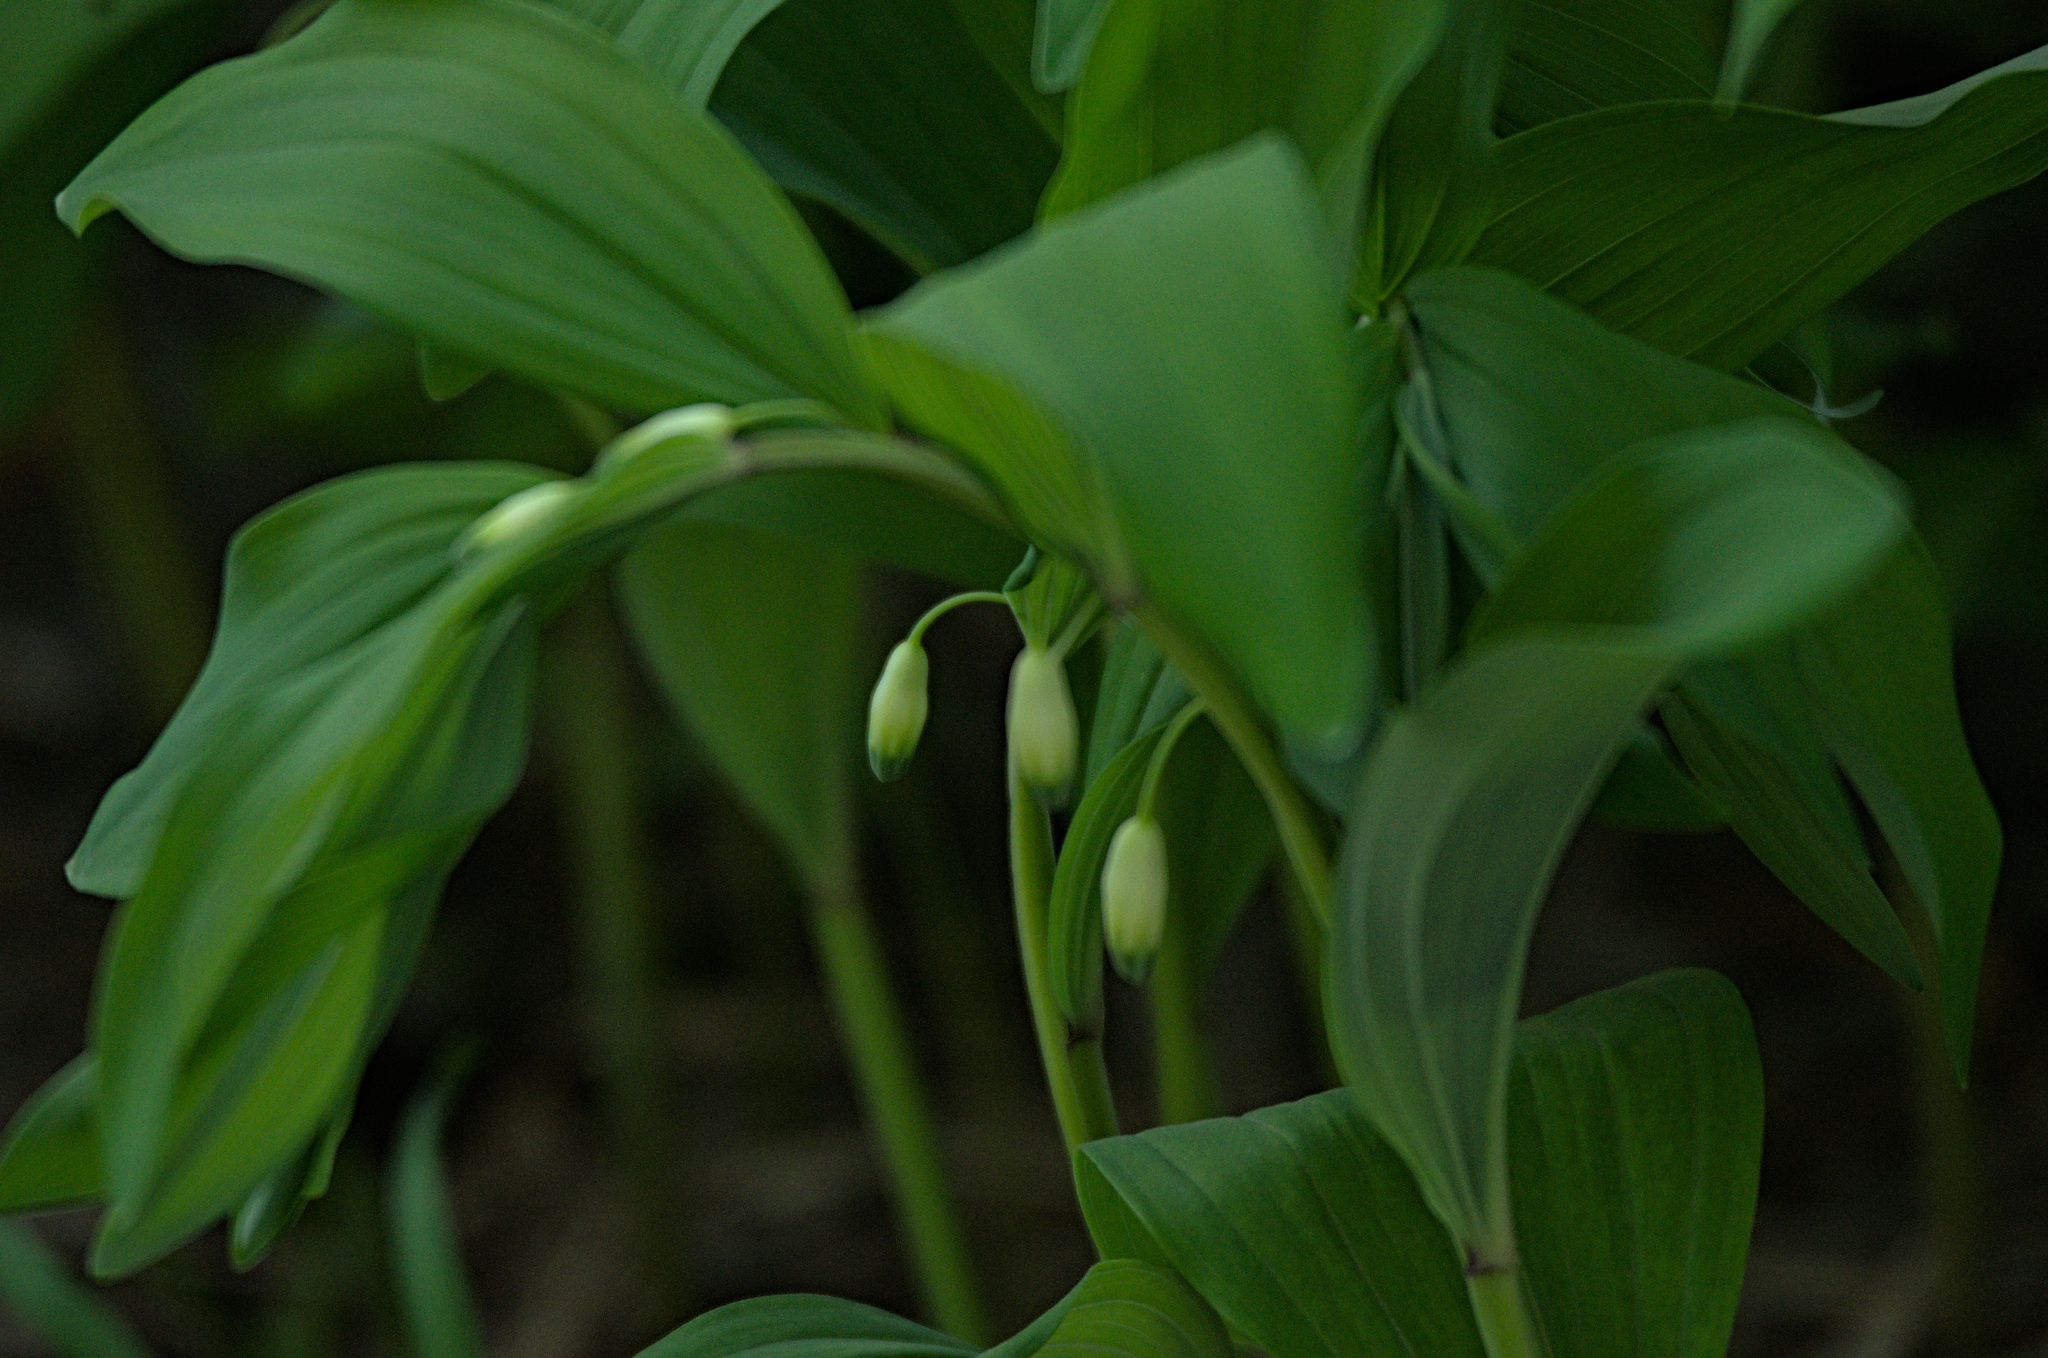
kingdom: Plantae
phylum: Tracheophyta
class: Liliopsida
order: Asparagales
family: Asparagaceae
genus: Polygonatum
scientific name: Polygonatum odoratum
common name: Angular solomon's-seal
